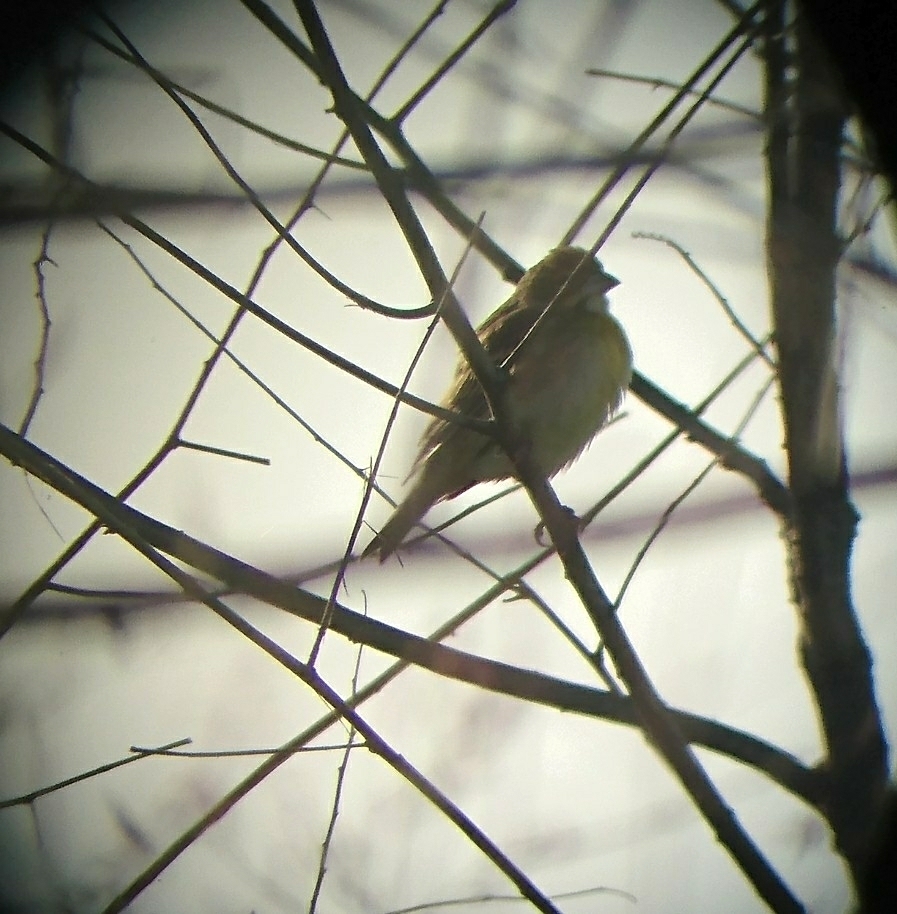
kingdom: Animalia
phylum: Chordata
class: Aves
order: Passeriformes
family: Cardinalidae
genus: Spiza
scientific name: Spiza americana
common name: Dickcissel
